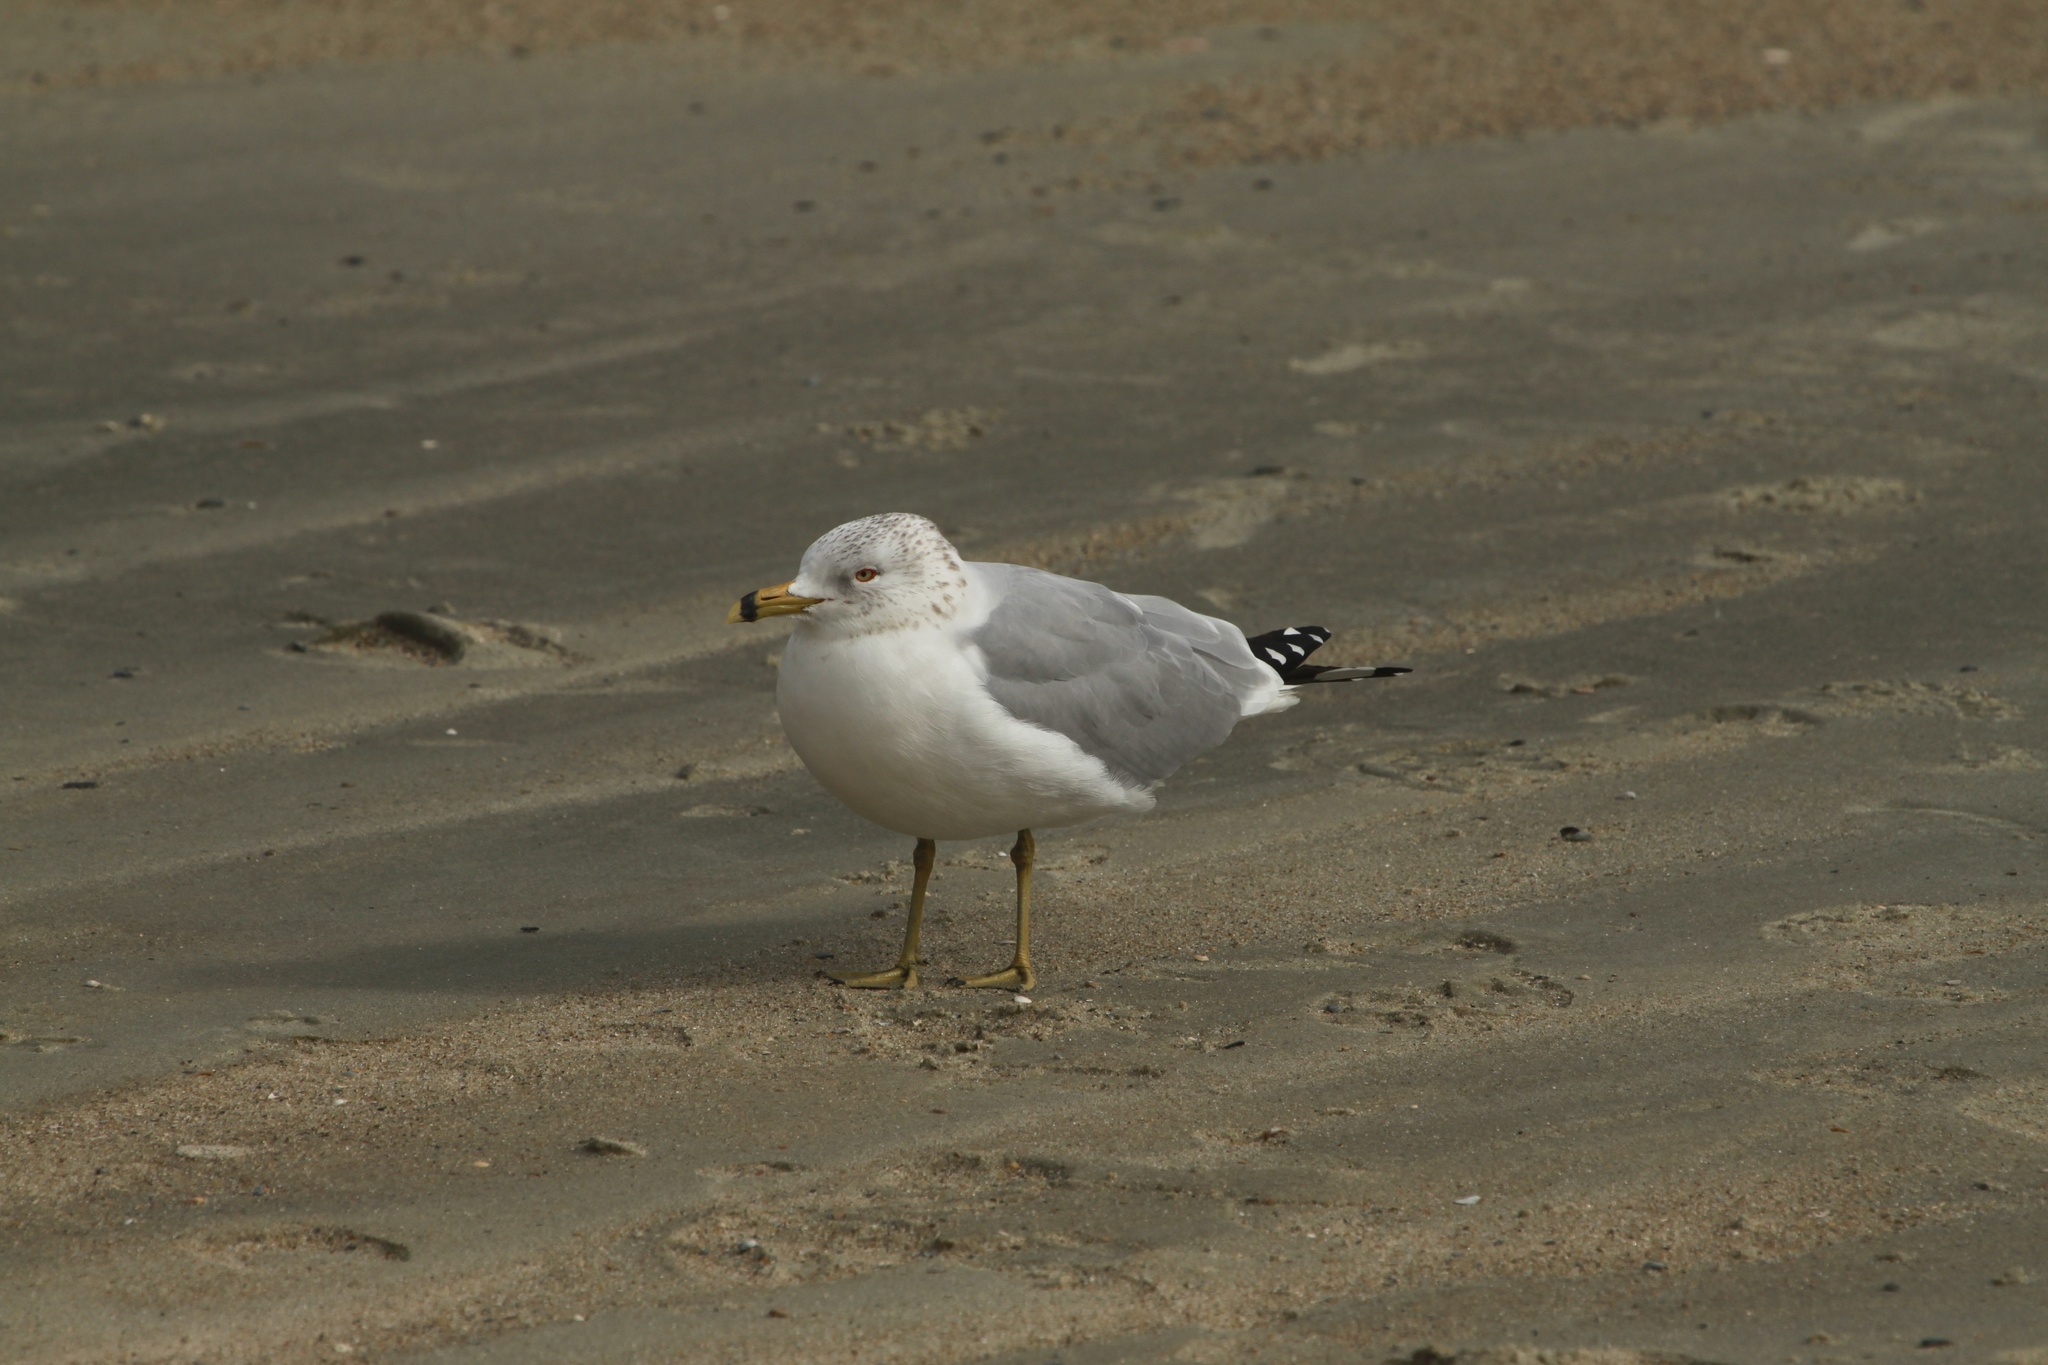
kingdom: Animalia
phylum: Chordata
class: Aves
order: Charadriiformes
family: Laridae
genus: Larus
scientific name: Larus delawarensis
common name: Ring-billed gull
